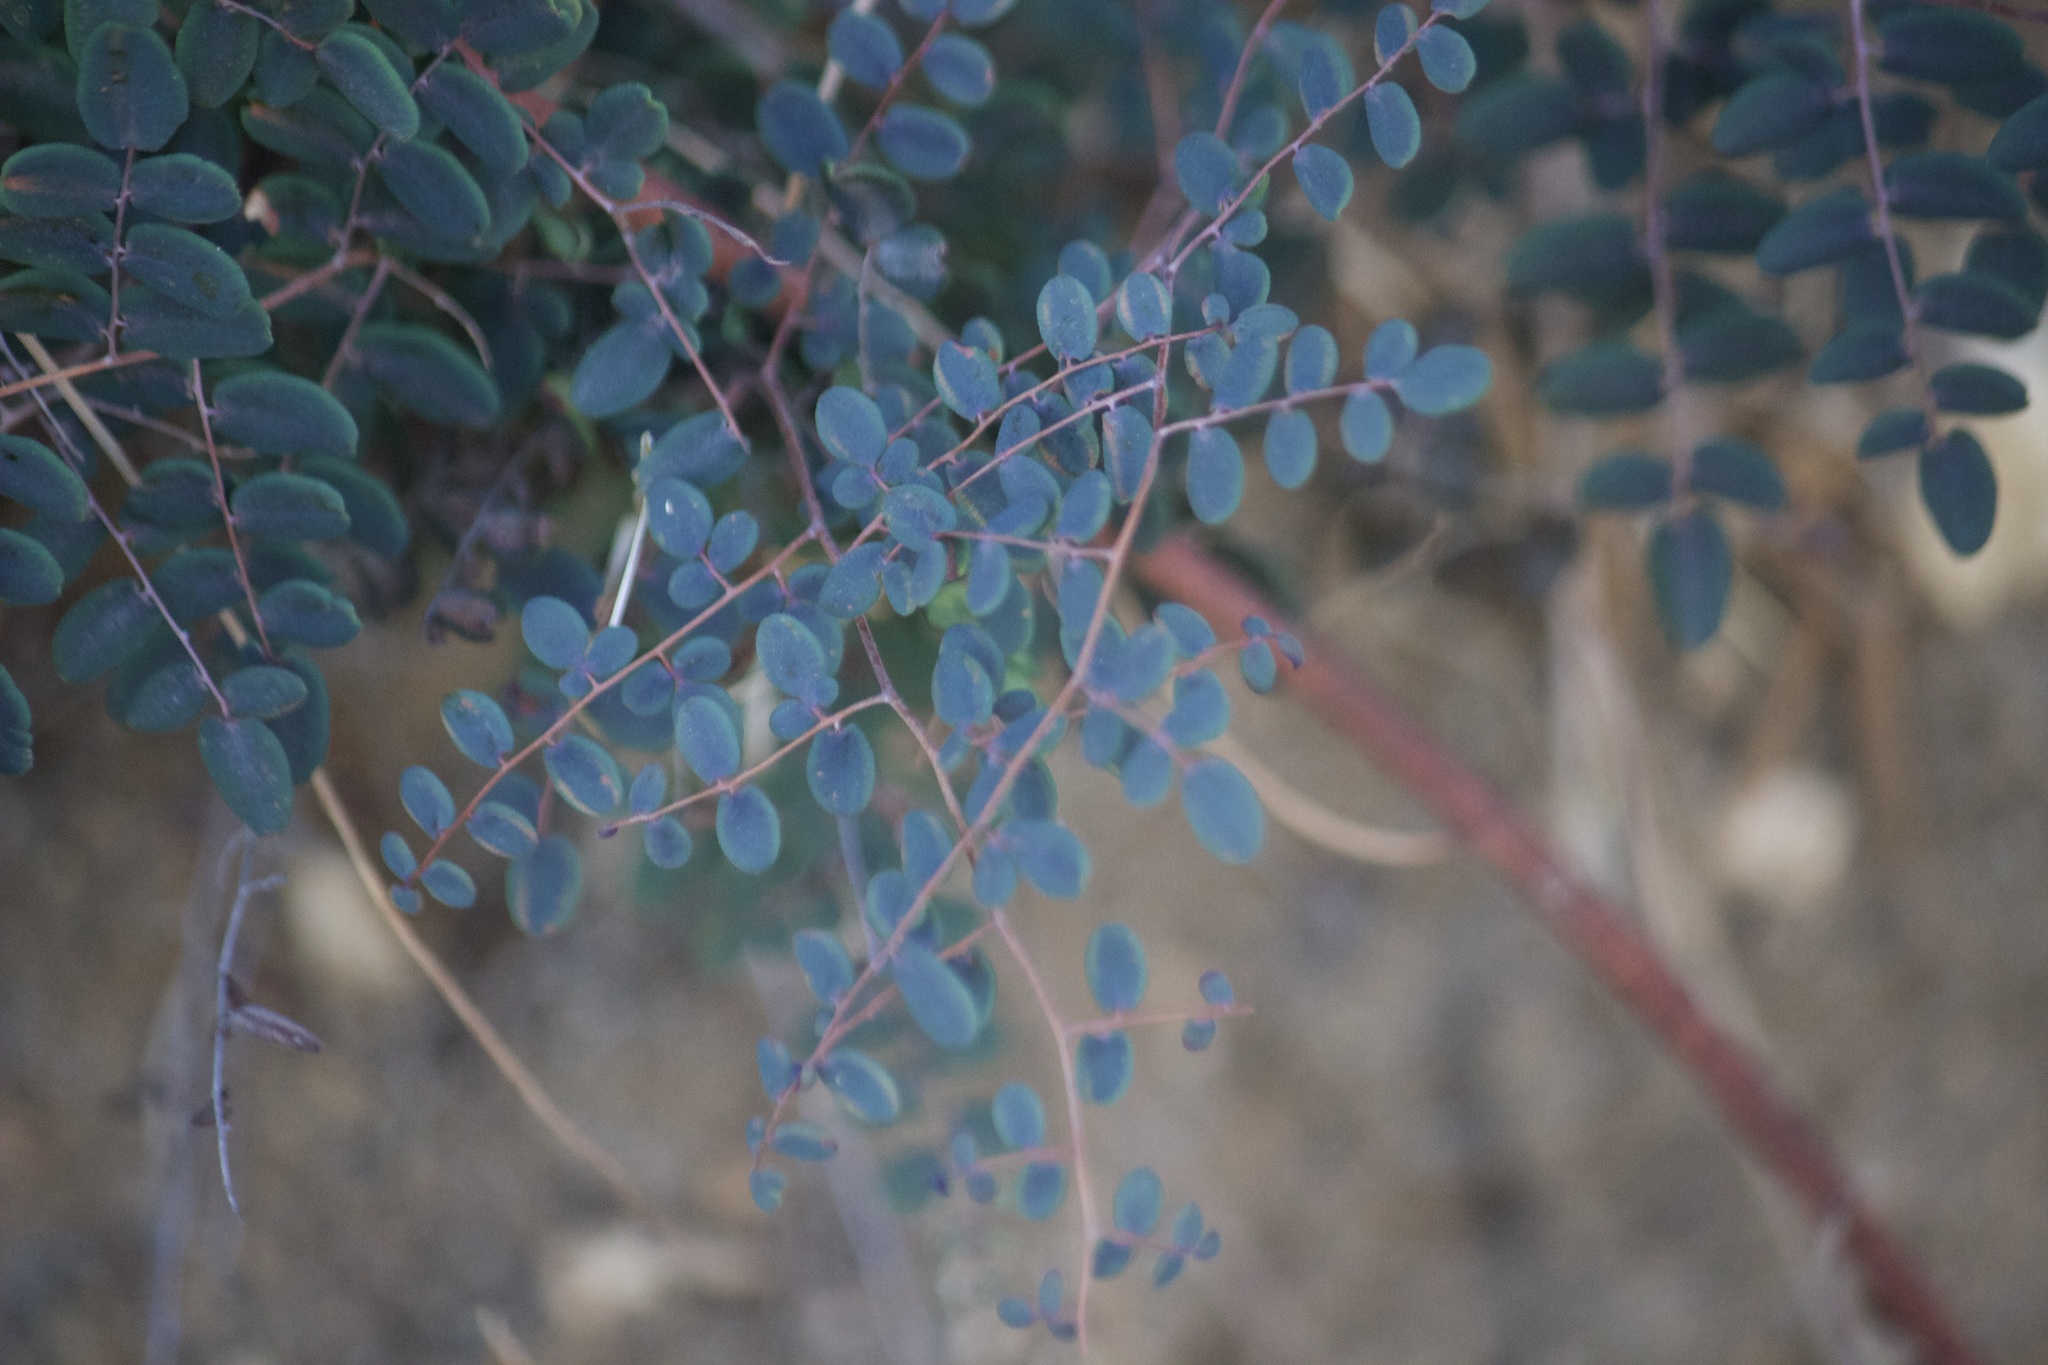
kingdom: Plantae
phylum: Tracheophyta
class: Polypodiopsida
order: Polypodiales
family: Pteridaceae
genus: Pellaea
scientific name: Pellaea andromedifolia
